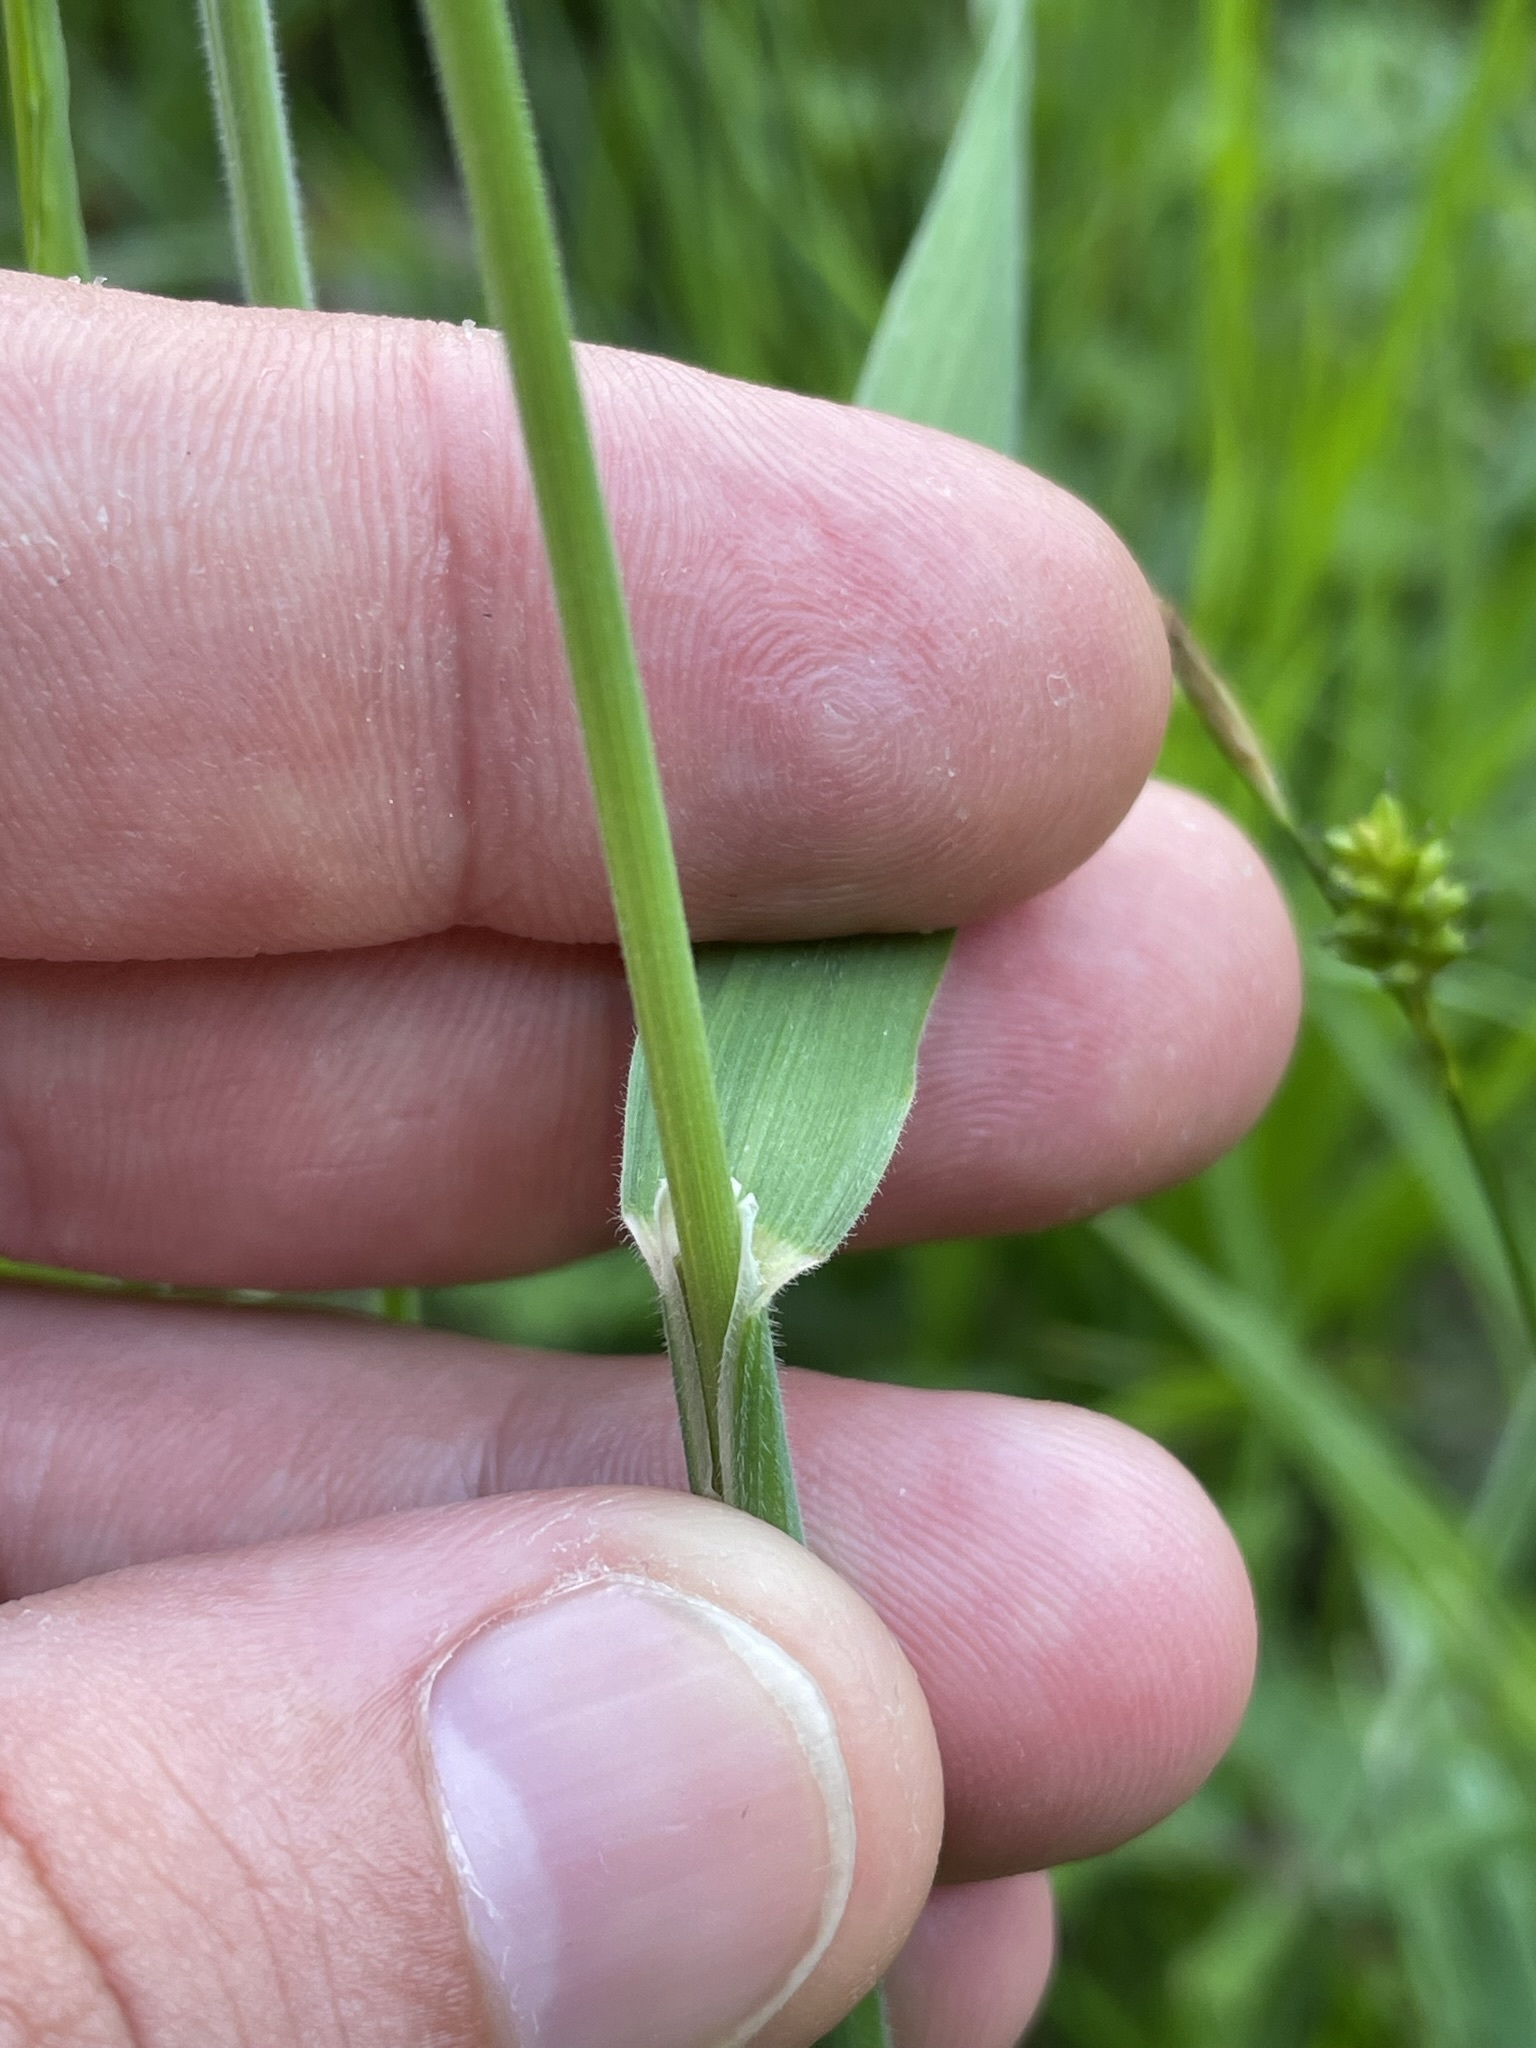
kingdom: Plantae
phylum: Tracheophyta
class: Liliopsida
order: Poales
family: Poaceae
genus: Holcus
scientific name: Holcus lanatus
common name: Yorkshire-fog
